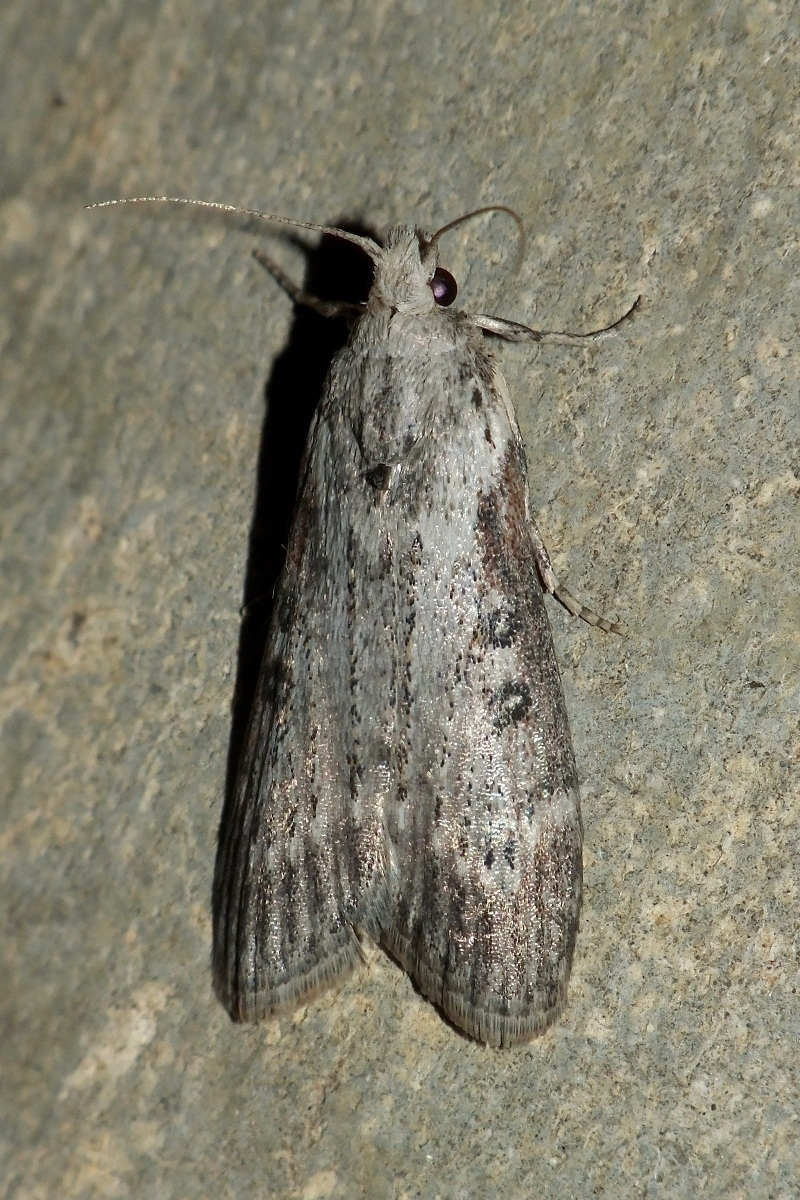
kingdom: Animalia
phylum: Arthropoda
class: Insecta
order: Lepidoptera
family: Pyralidae
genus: Lamoria
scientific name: Lamoria anella
